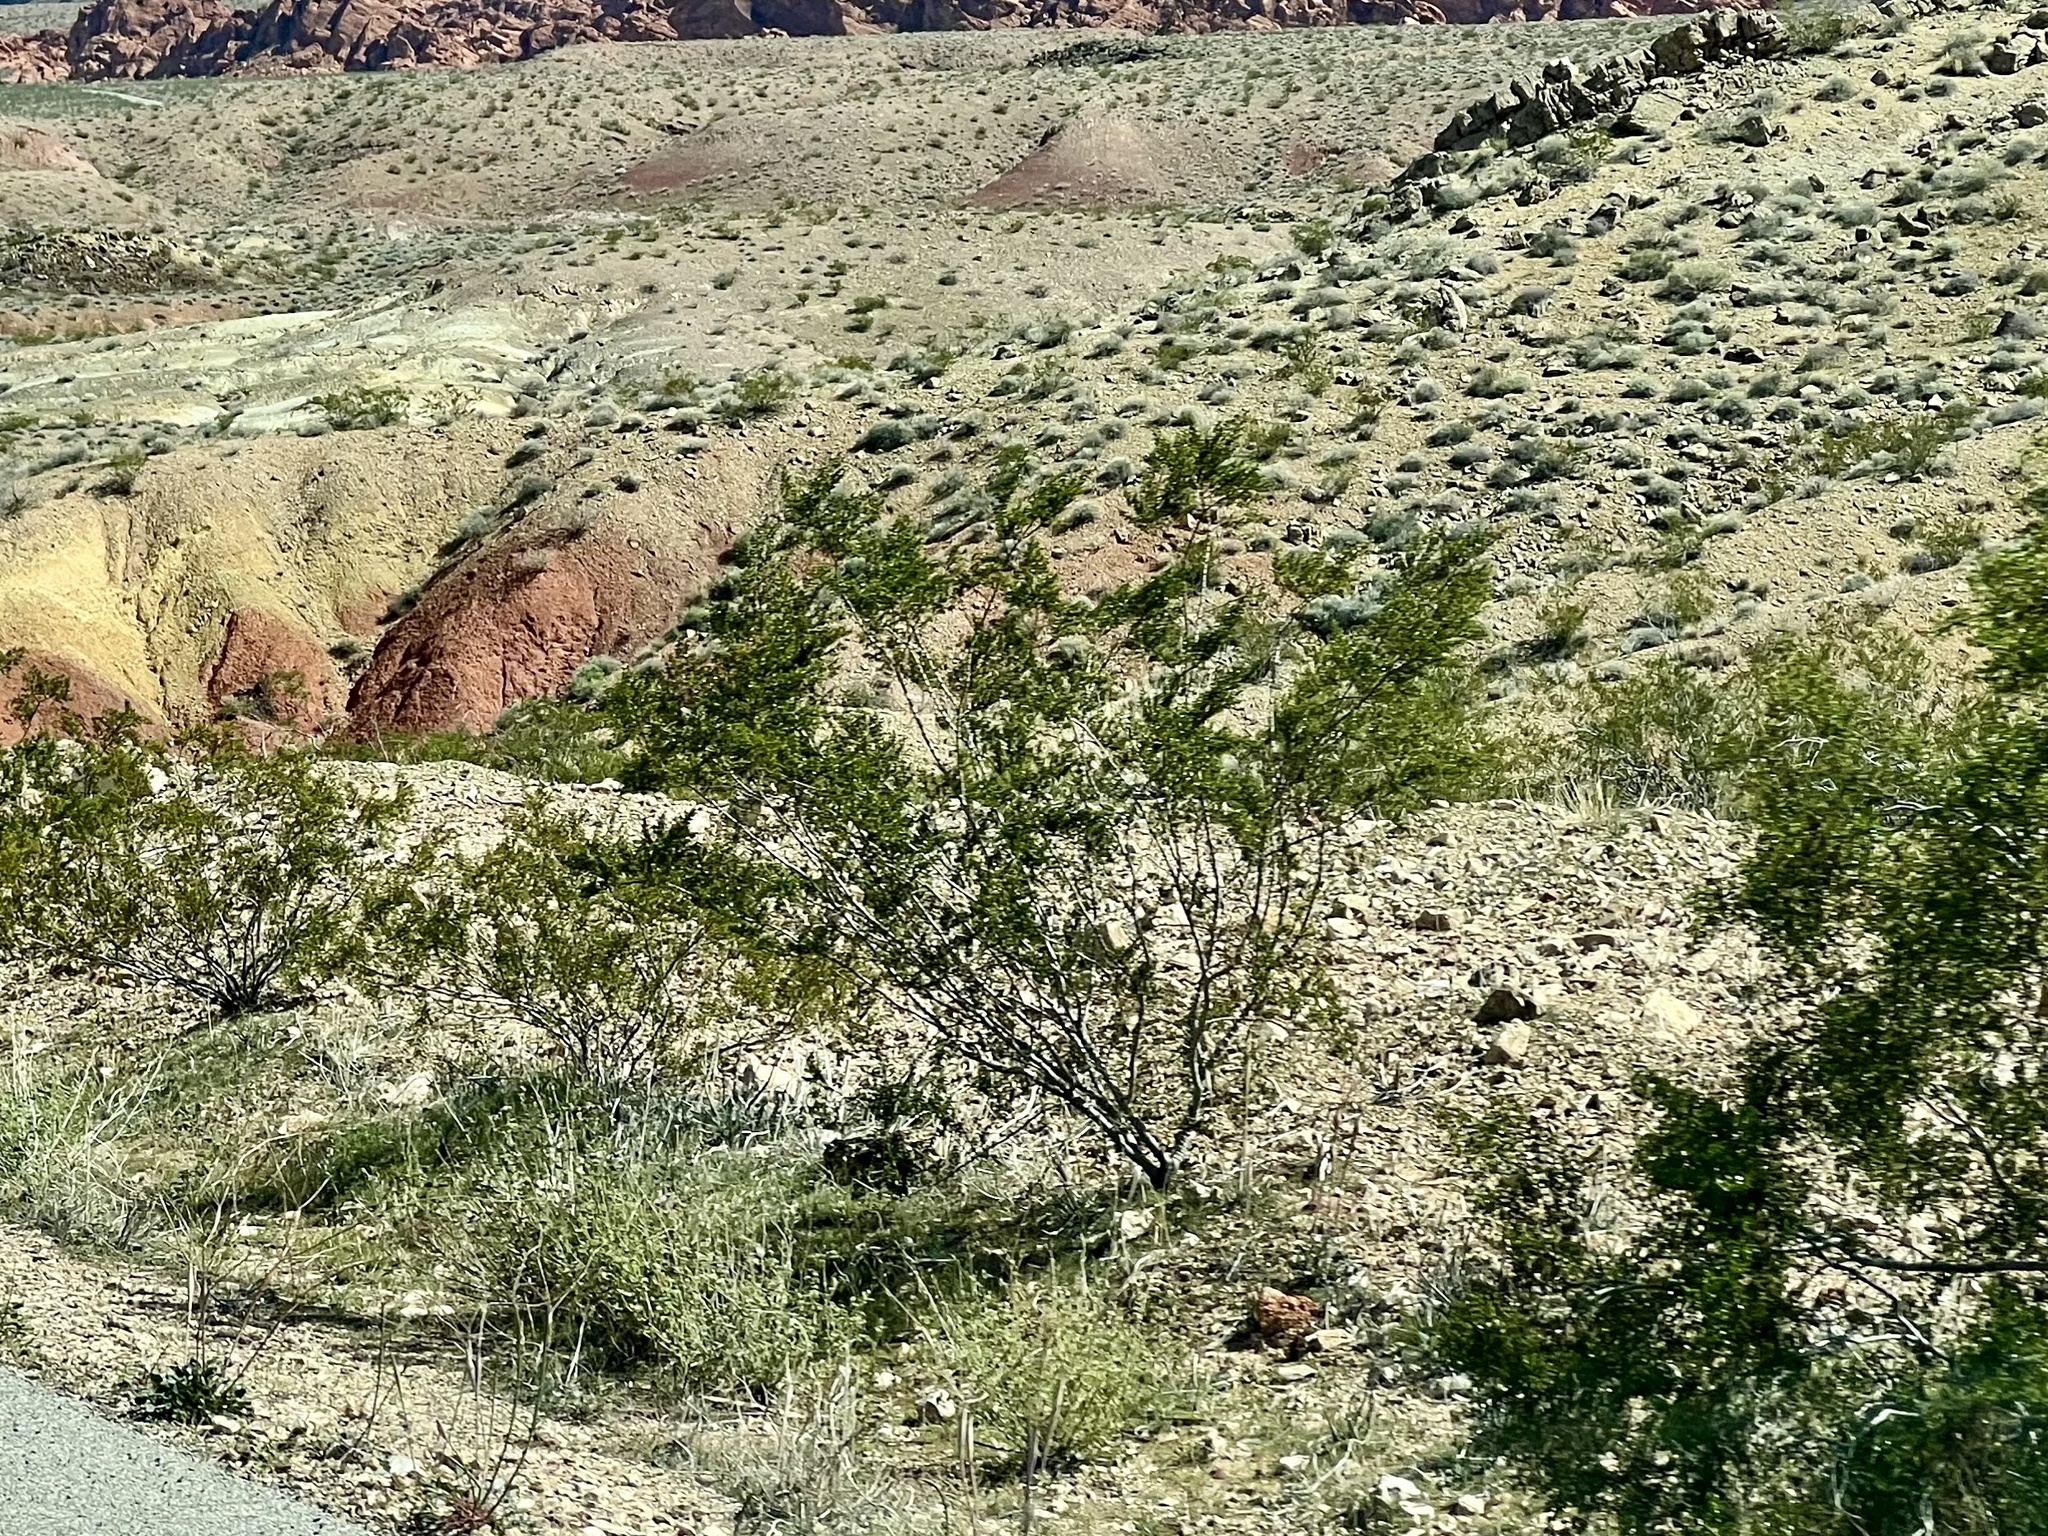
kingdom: Plantae
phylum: Tracheophyta
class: Magnoliopsida
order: Zygophyllales
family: Zygophyllaceae
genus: Larrea
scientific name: Larrea tridentata
